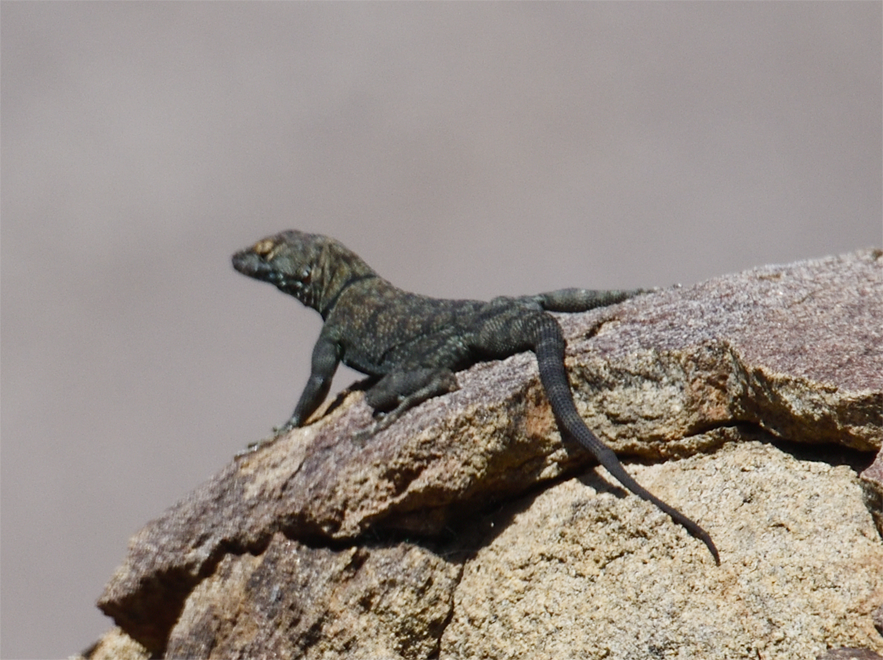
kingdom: Animalia
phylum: Chordata
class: Squamata
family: Phrynosomatidae
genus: Petrosaurus
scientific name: Petrosaurus mearnsi
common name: Banded rock lizard
